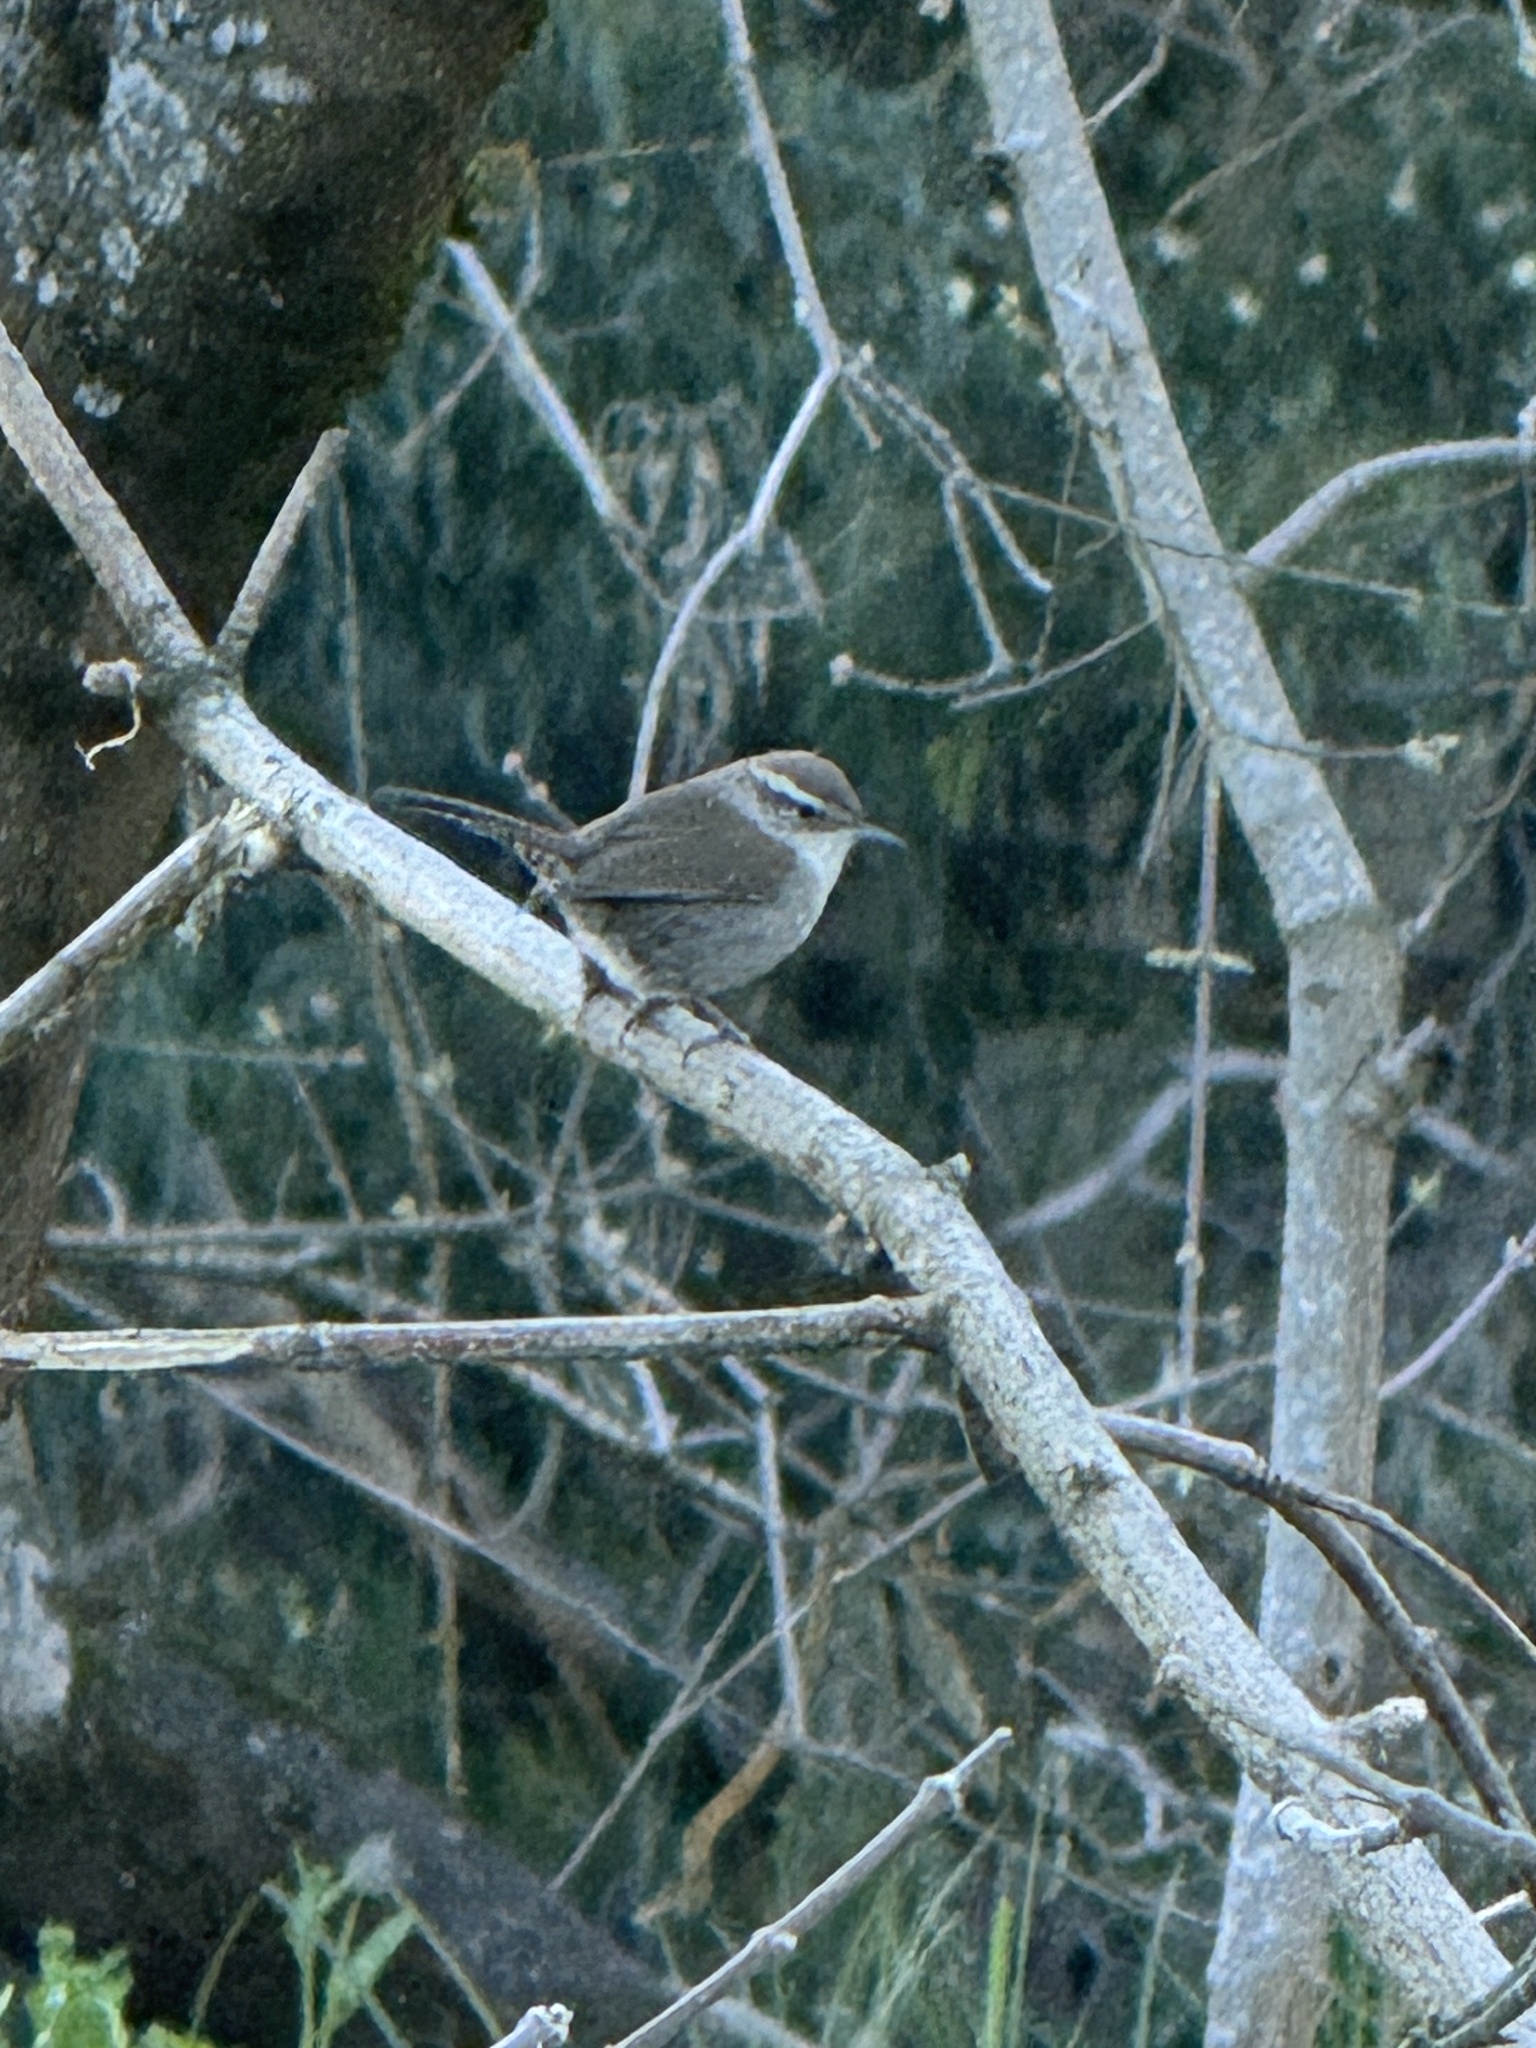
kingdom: Animalia
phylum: Chordata
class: Aves
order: Passeriformes
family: Troglodytidae
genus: Thryomanes
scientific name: Thryomanes bewickii
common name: Bewick's wren
